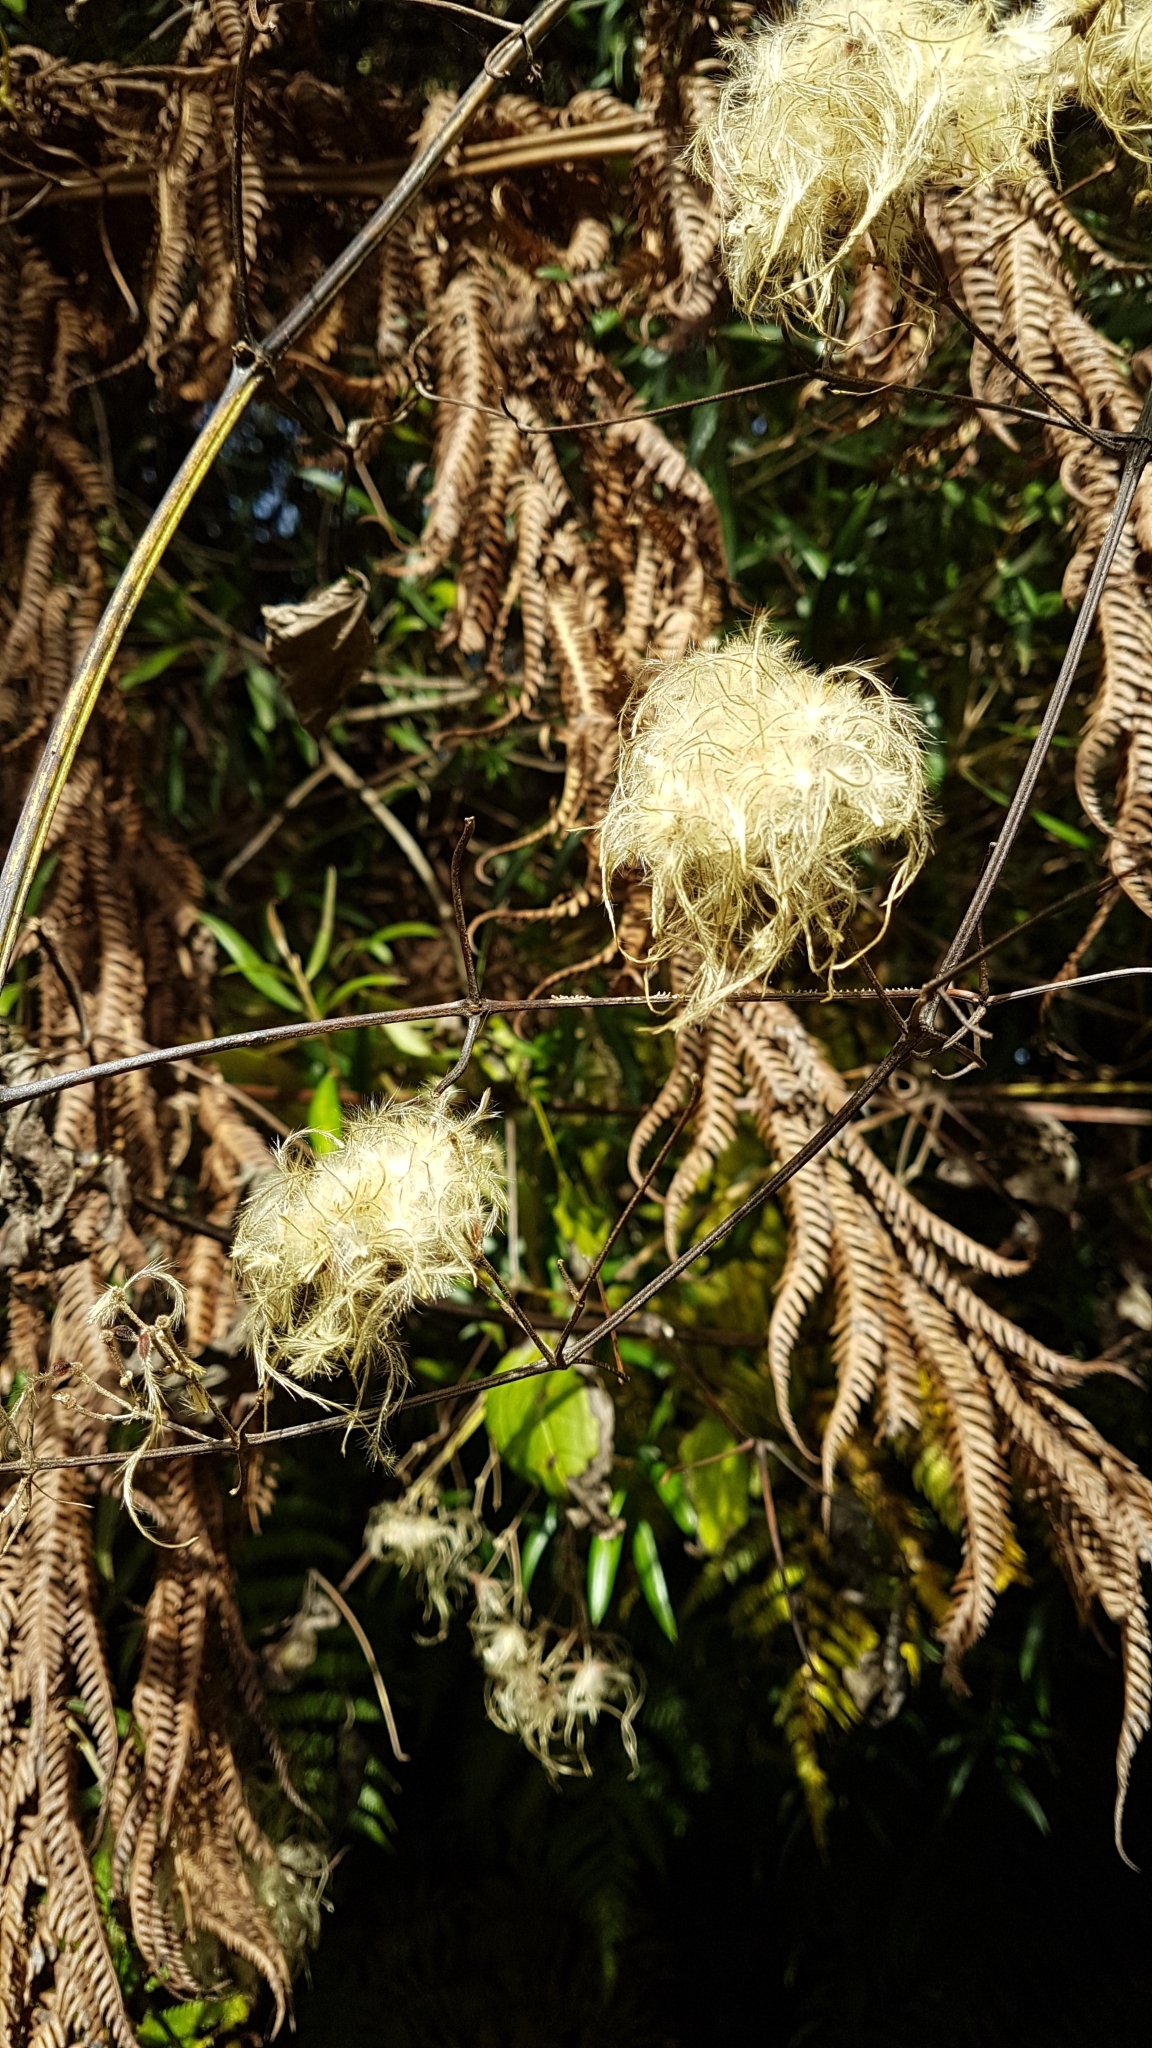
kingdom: Plantae
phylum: Tracheophyta
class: Magnoliopsida
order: Ranunculales
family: Ranunculaceae
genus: Clematis
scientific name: Clematis vitalba
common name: Evergreen clematis
